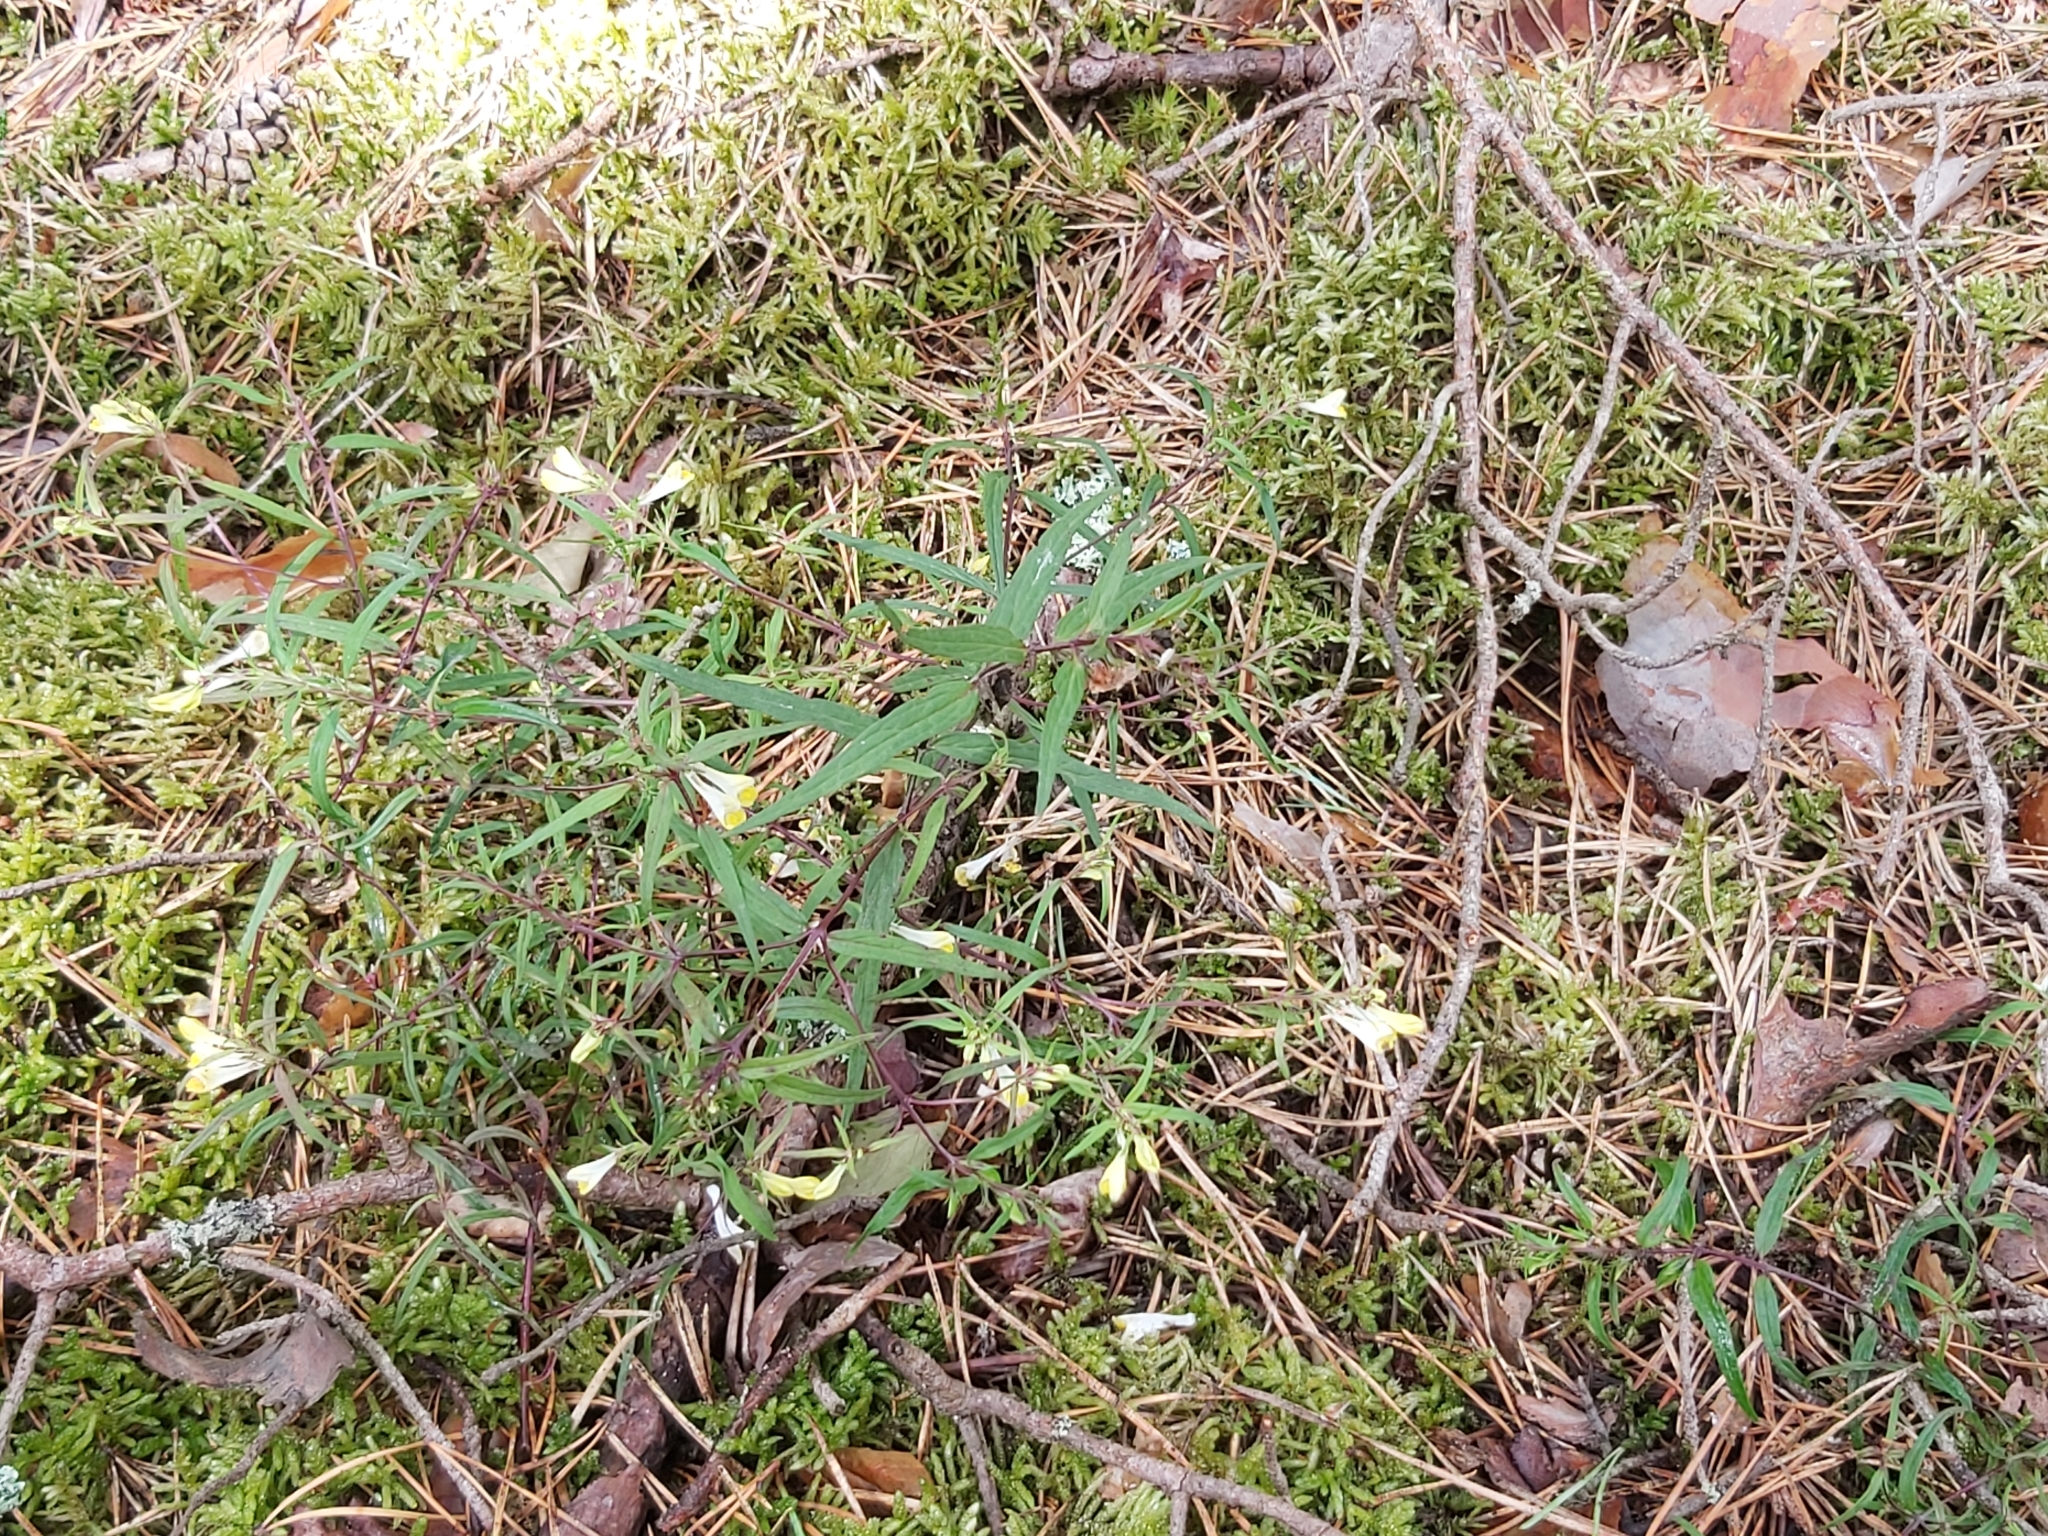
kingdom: Plantae
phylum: Tracheophyta
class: Magnoliopsida
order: Lamiales
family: Orobanchaceae
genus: Melampyrum
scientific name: Melampyrum pratense
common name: Common cow-wheat
